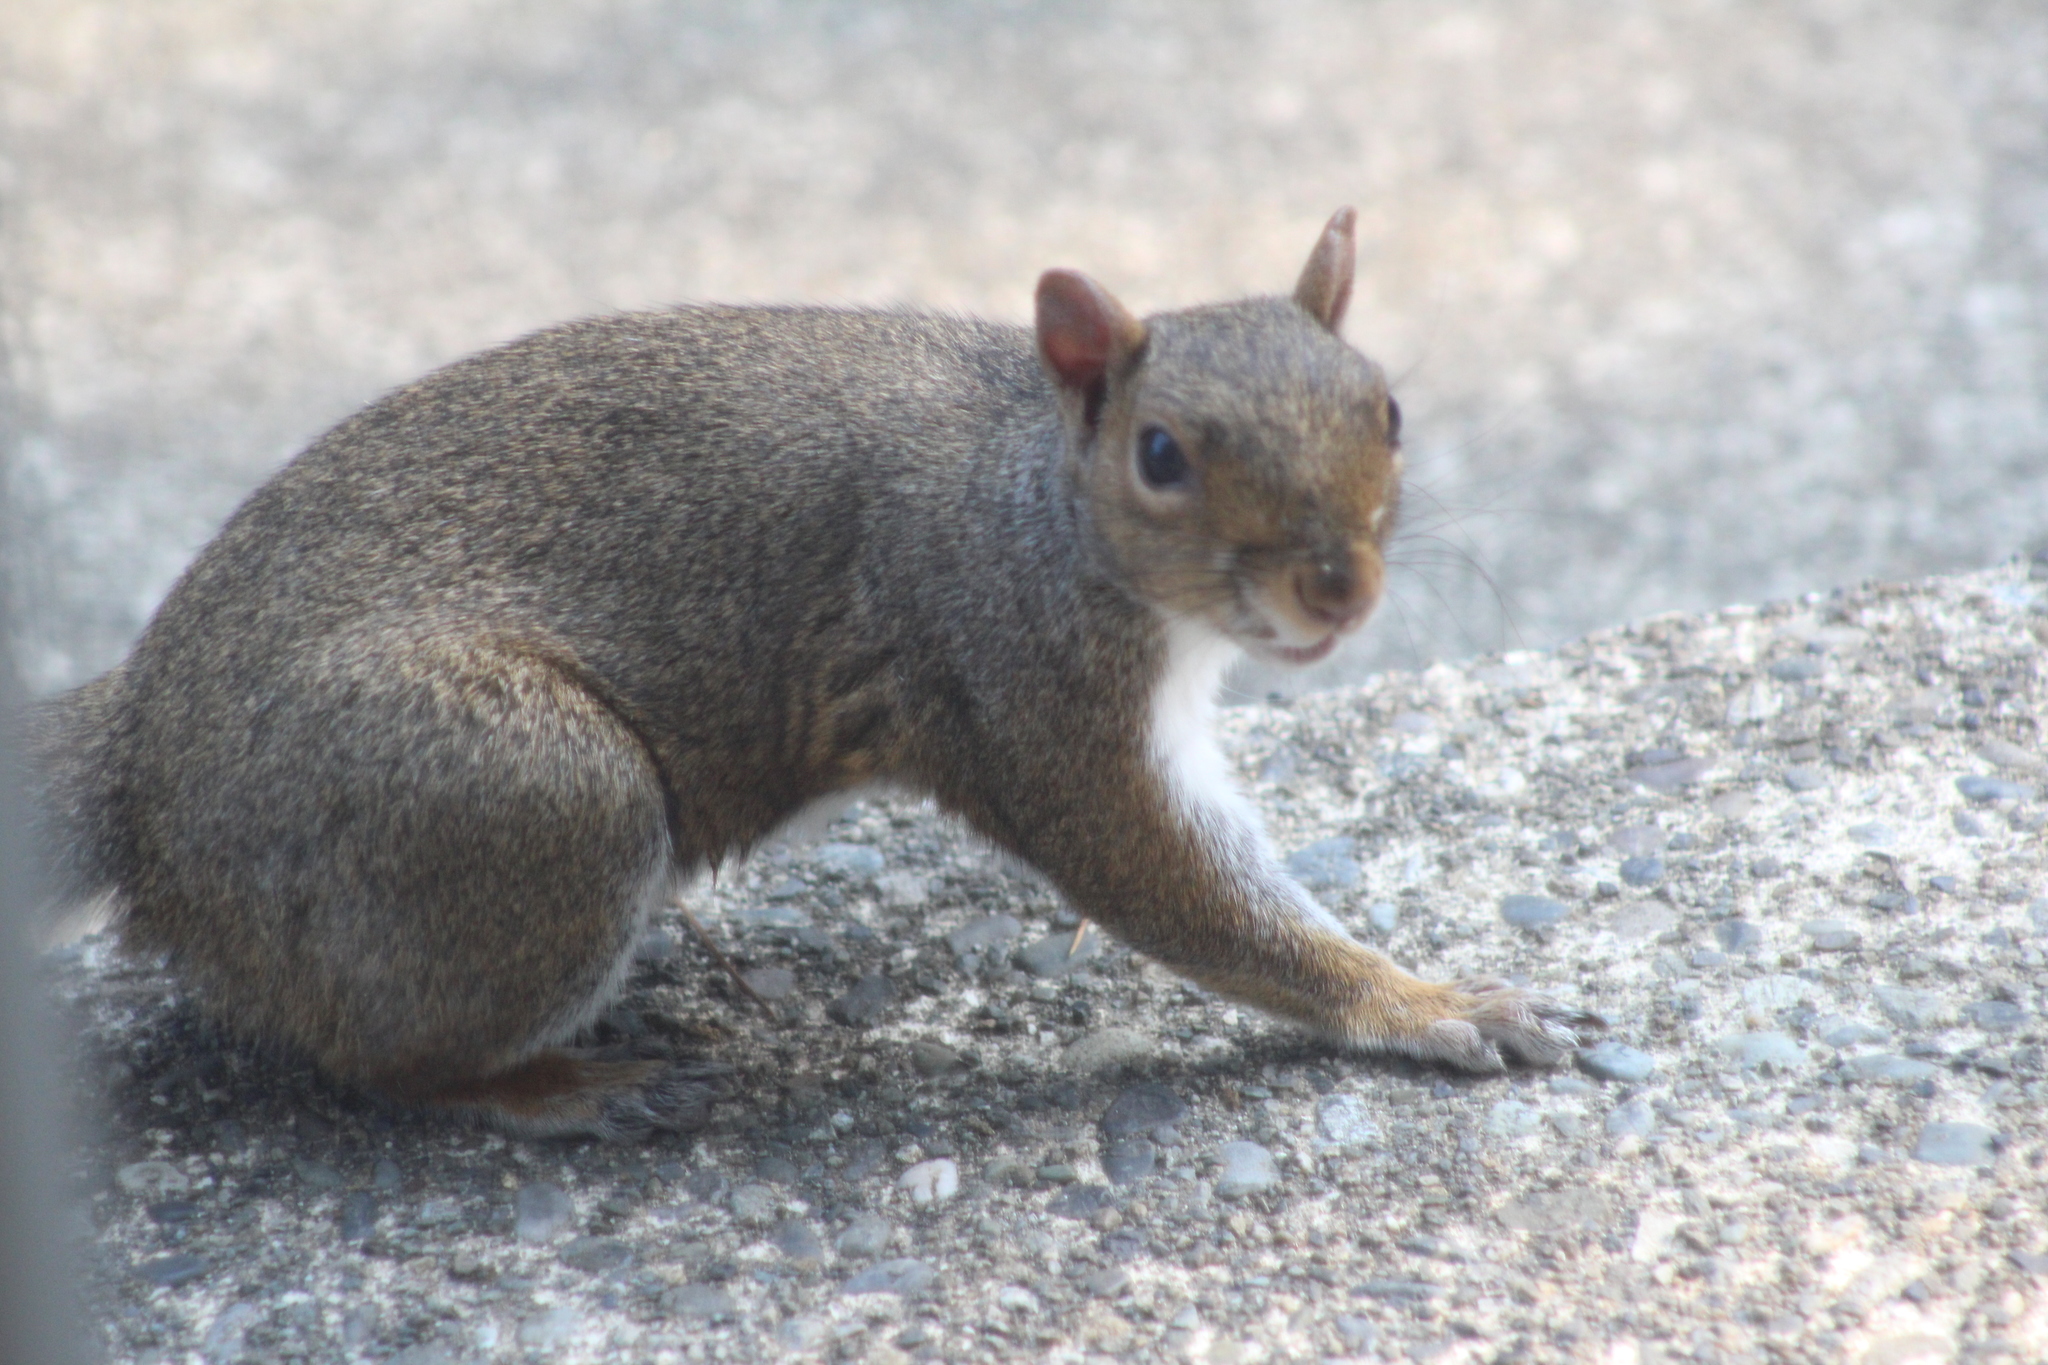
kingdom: Animalia
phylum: Chordata
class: Mammalia
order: Rodentia
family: Sciuridae
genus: Sciurus
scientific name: Sciurus carolinensis
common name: Eastern gray squirrel
